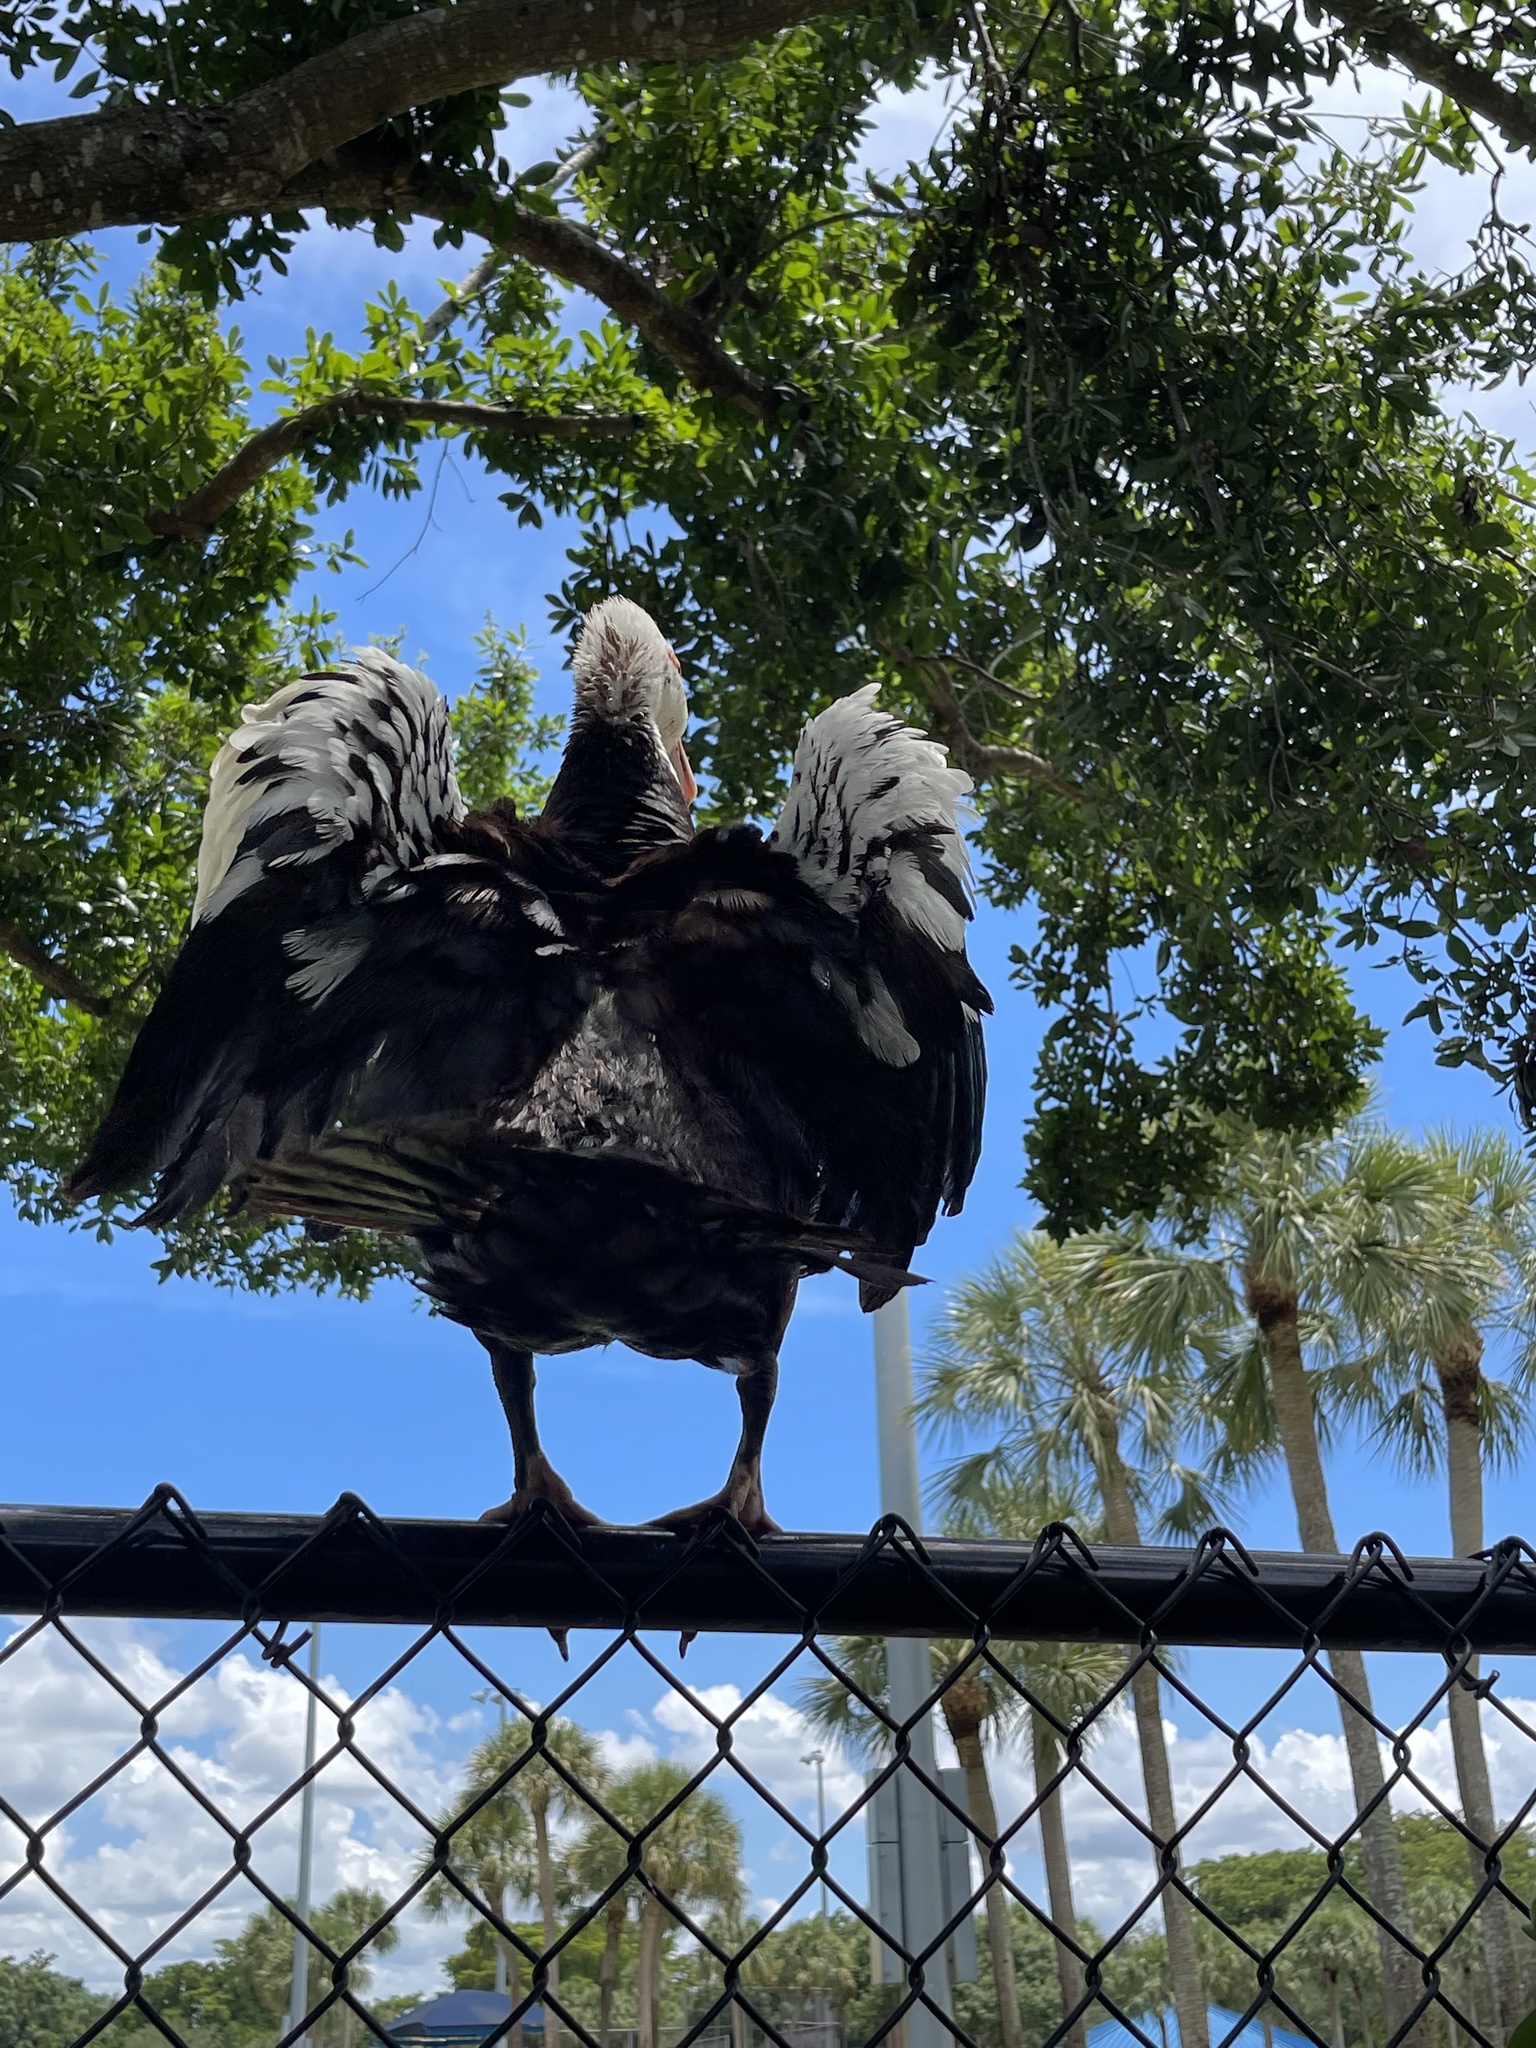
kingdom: Animalia
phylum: Chordata
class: Aves
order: Anseriformes
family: Anatidae
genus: Cairina
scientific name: Cairina moschata
